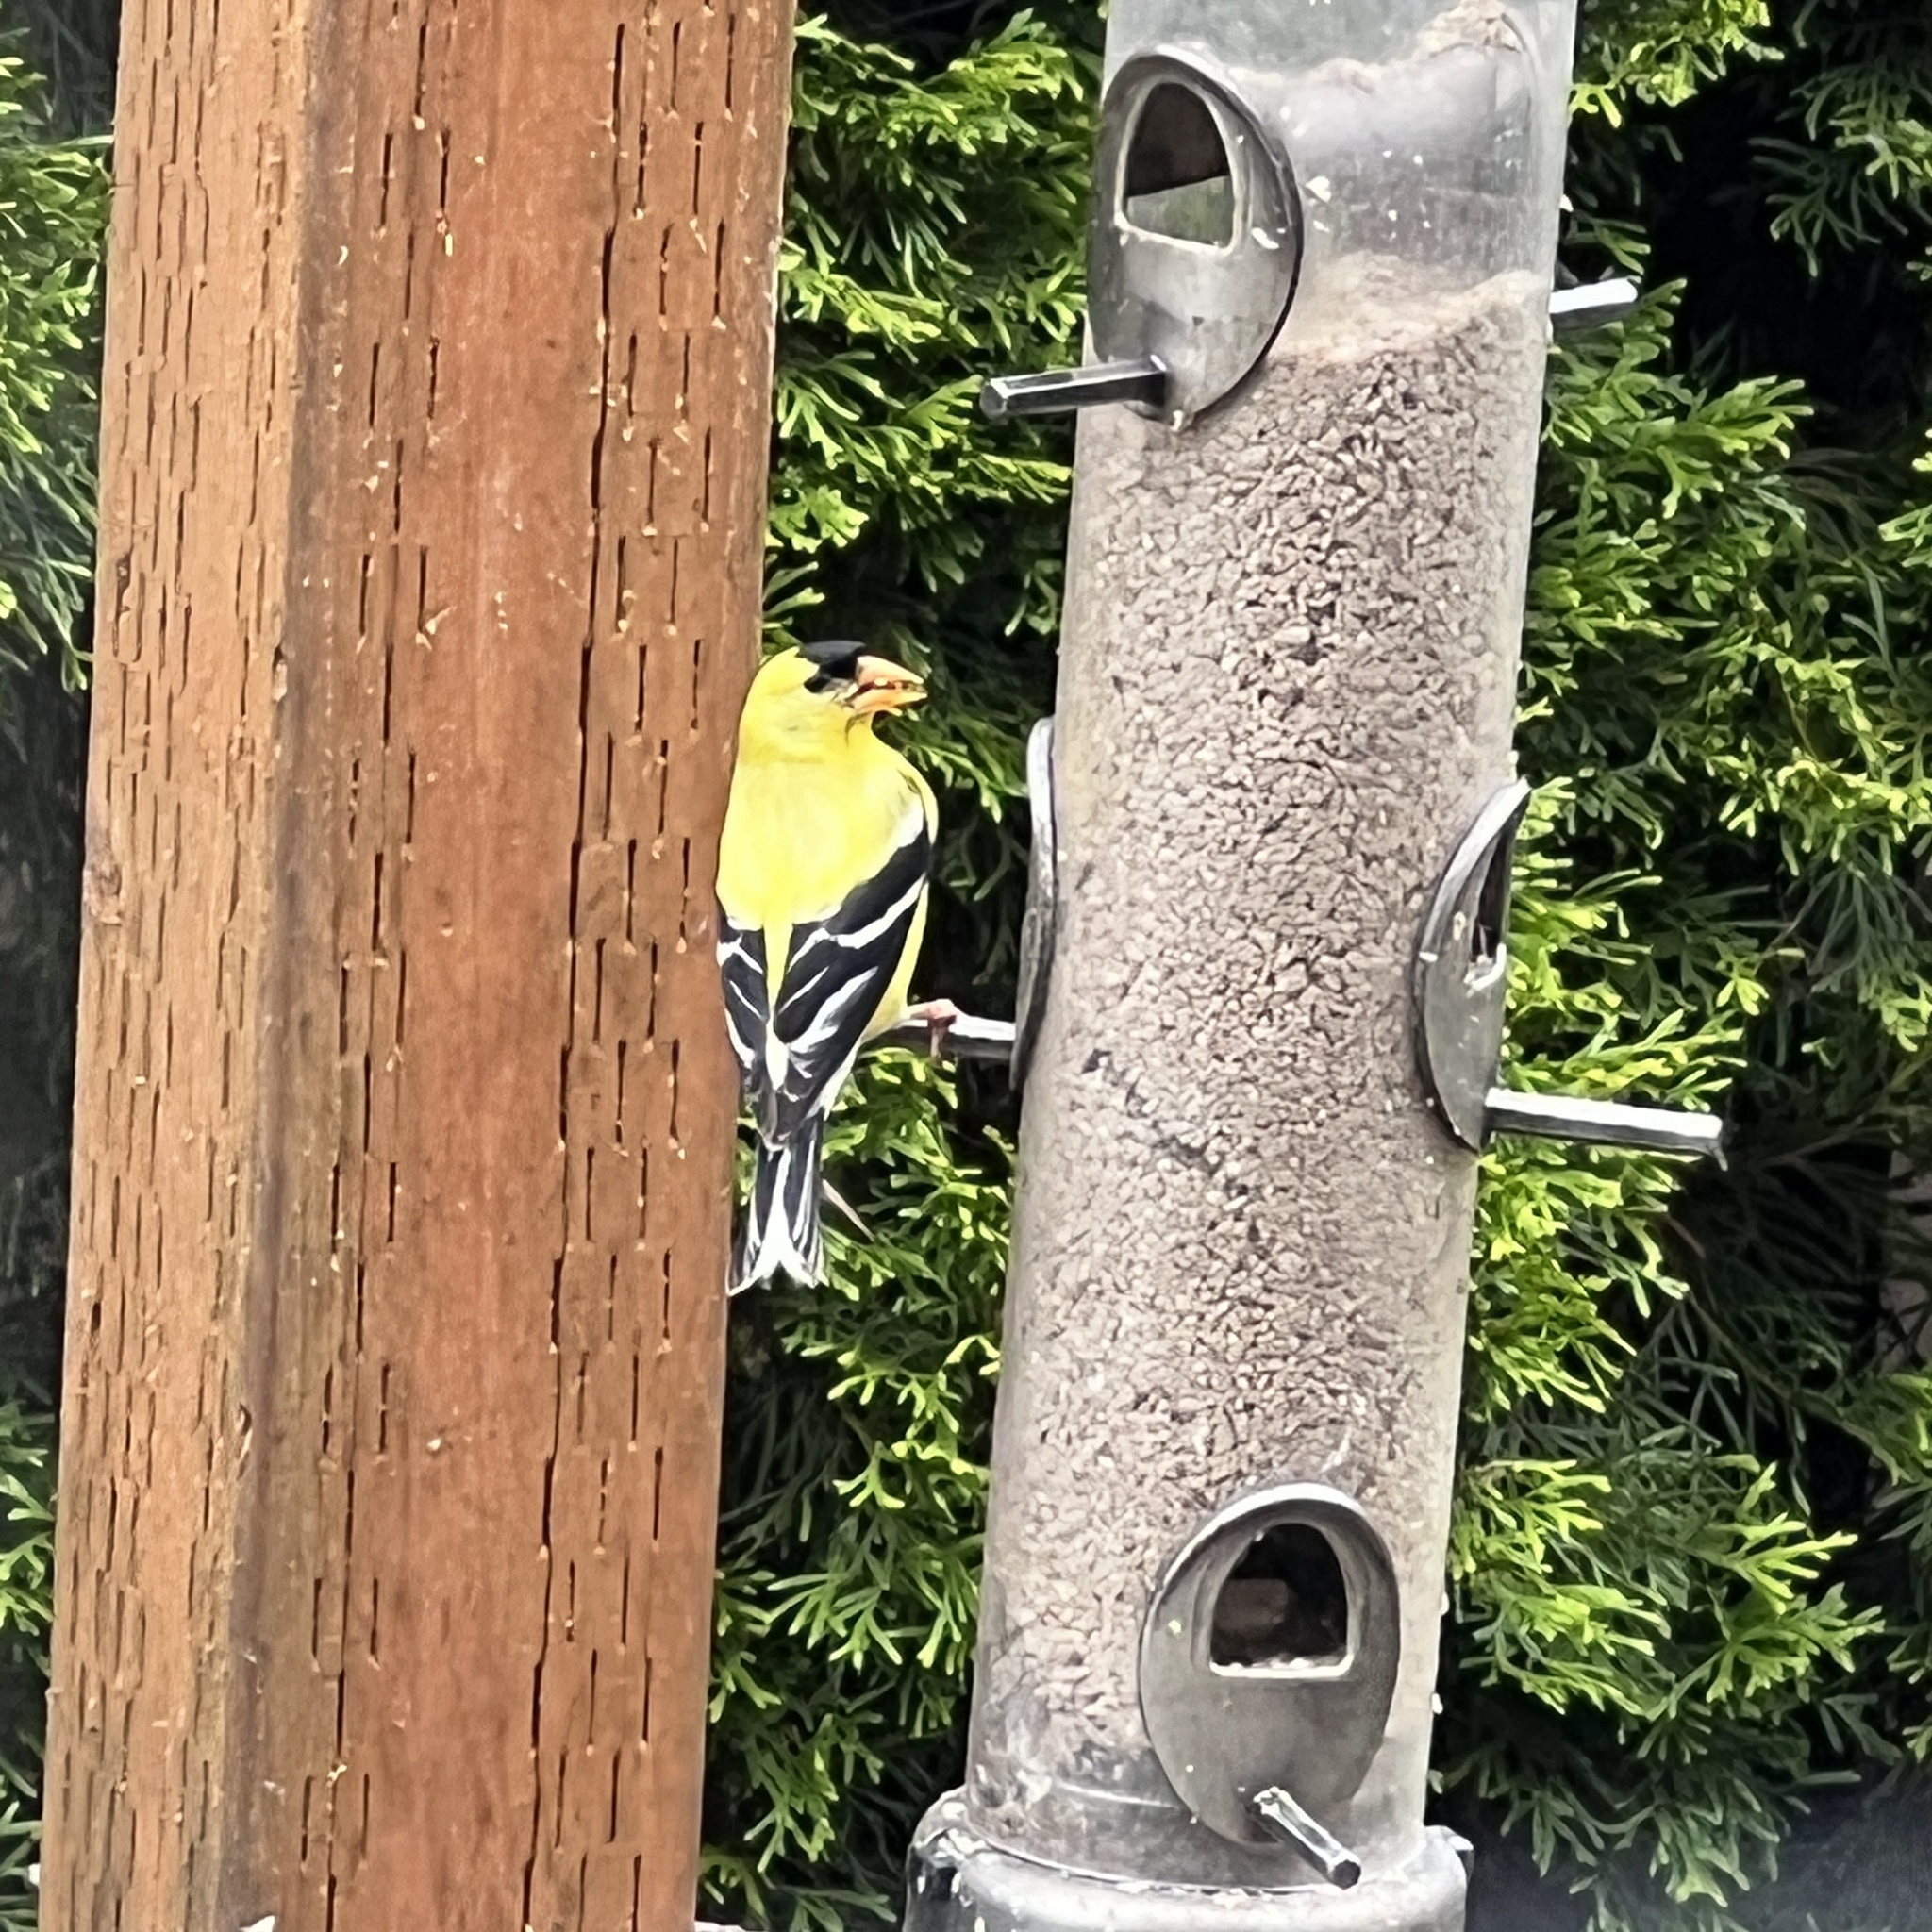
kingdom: Animalia
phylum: Chordata
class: Aves
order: Passeriformes
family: Fringillidae
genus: Spinus
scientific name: Spinus tristis
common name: American goldfinch
